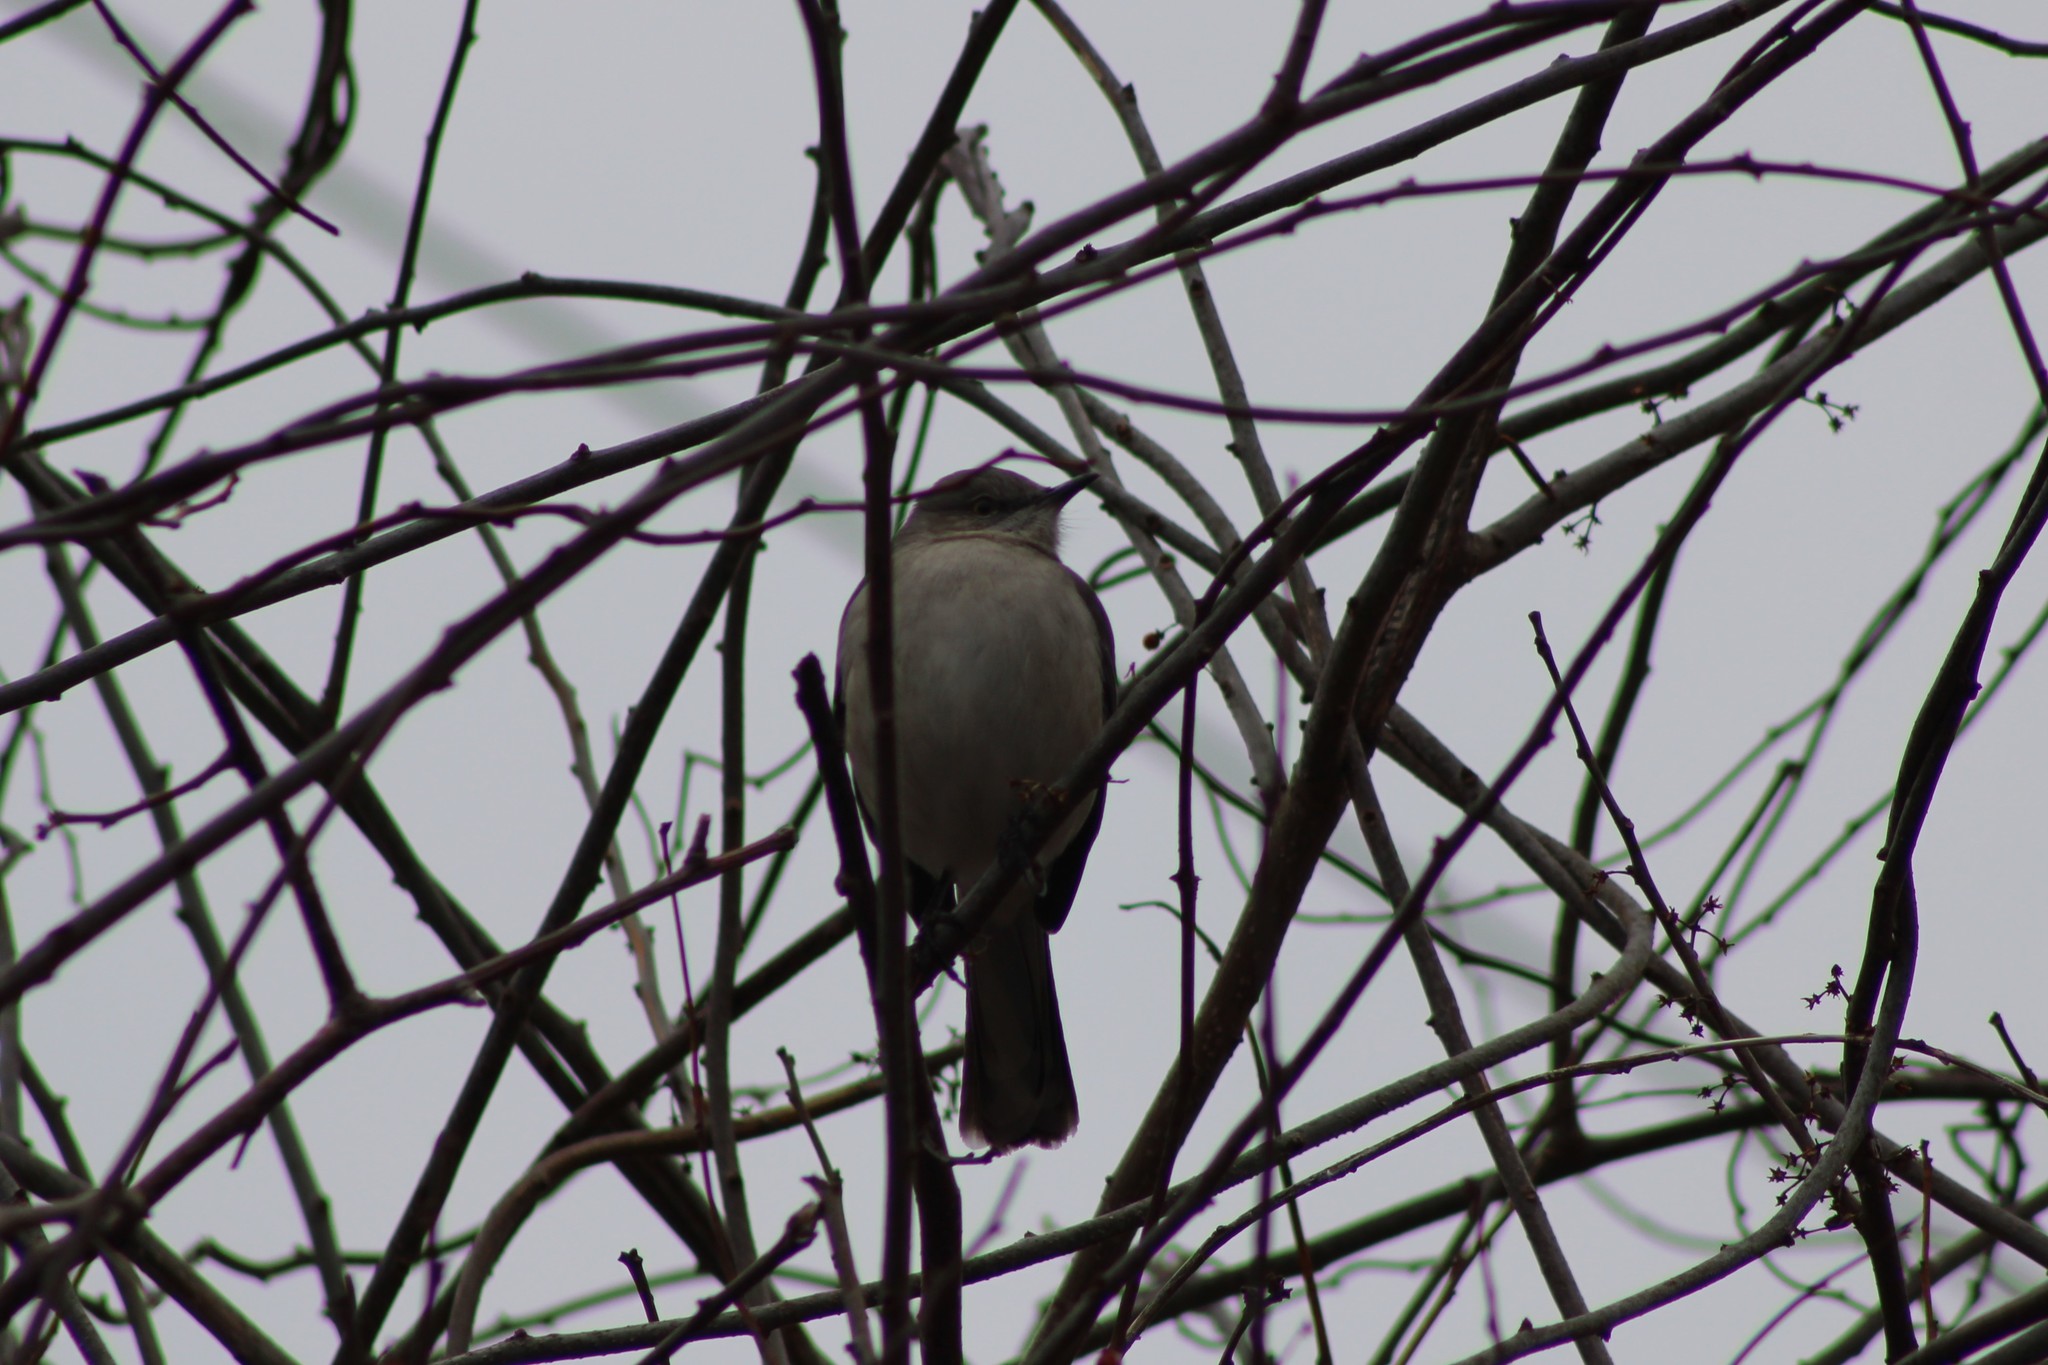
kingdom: Animalia
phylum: Chordata
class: Aves
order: Passeriformes
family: Mimidae
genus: Mimus
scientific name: Mimus polyglottos
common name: Northern mockingbird
